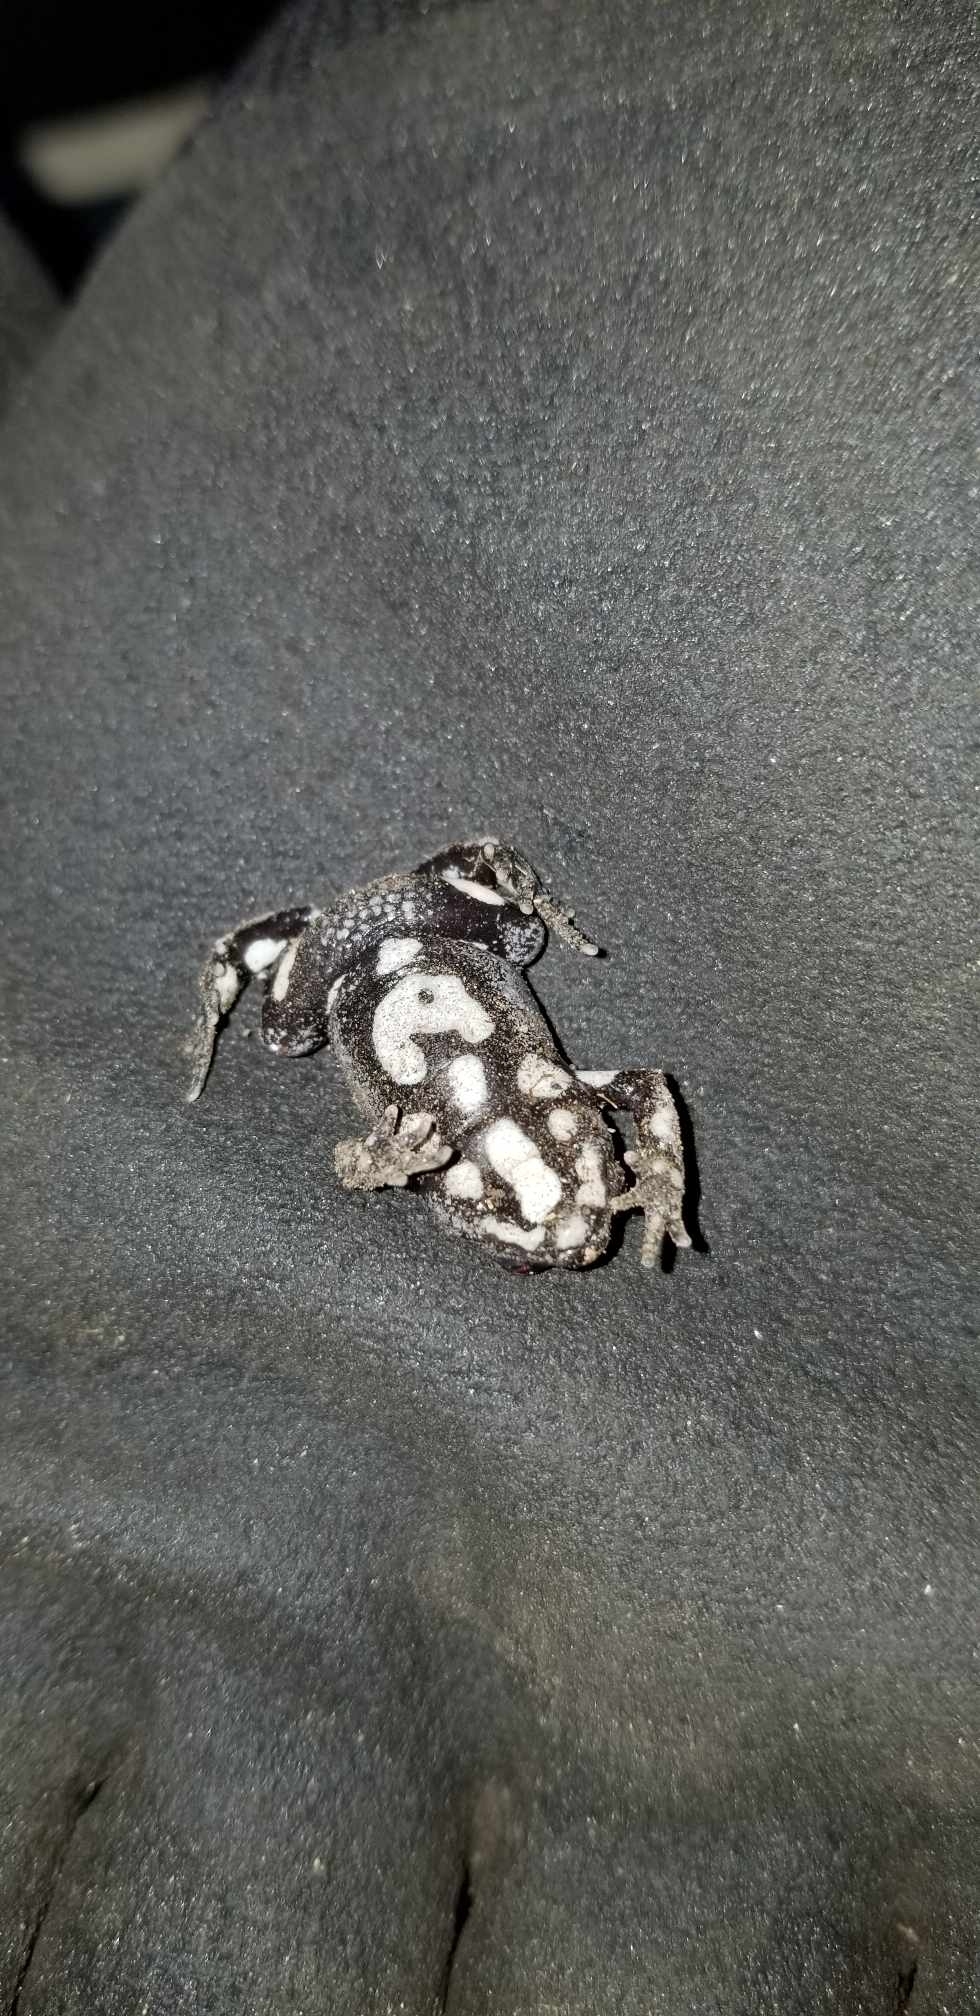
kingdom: Animalia
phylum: Chordata
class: Amphibia
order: Anura
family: Myobatrachidae
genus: Pseudophryne
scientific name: Pseudophryne australis
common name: Red-crowned toadlet
